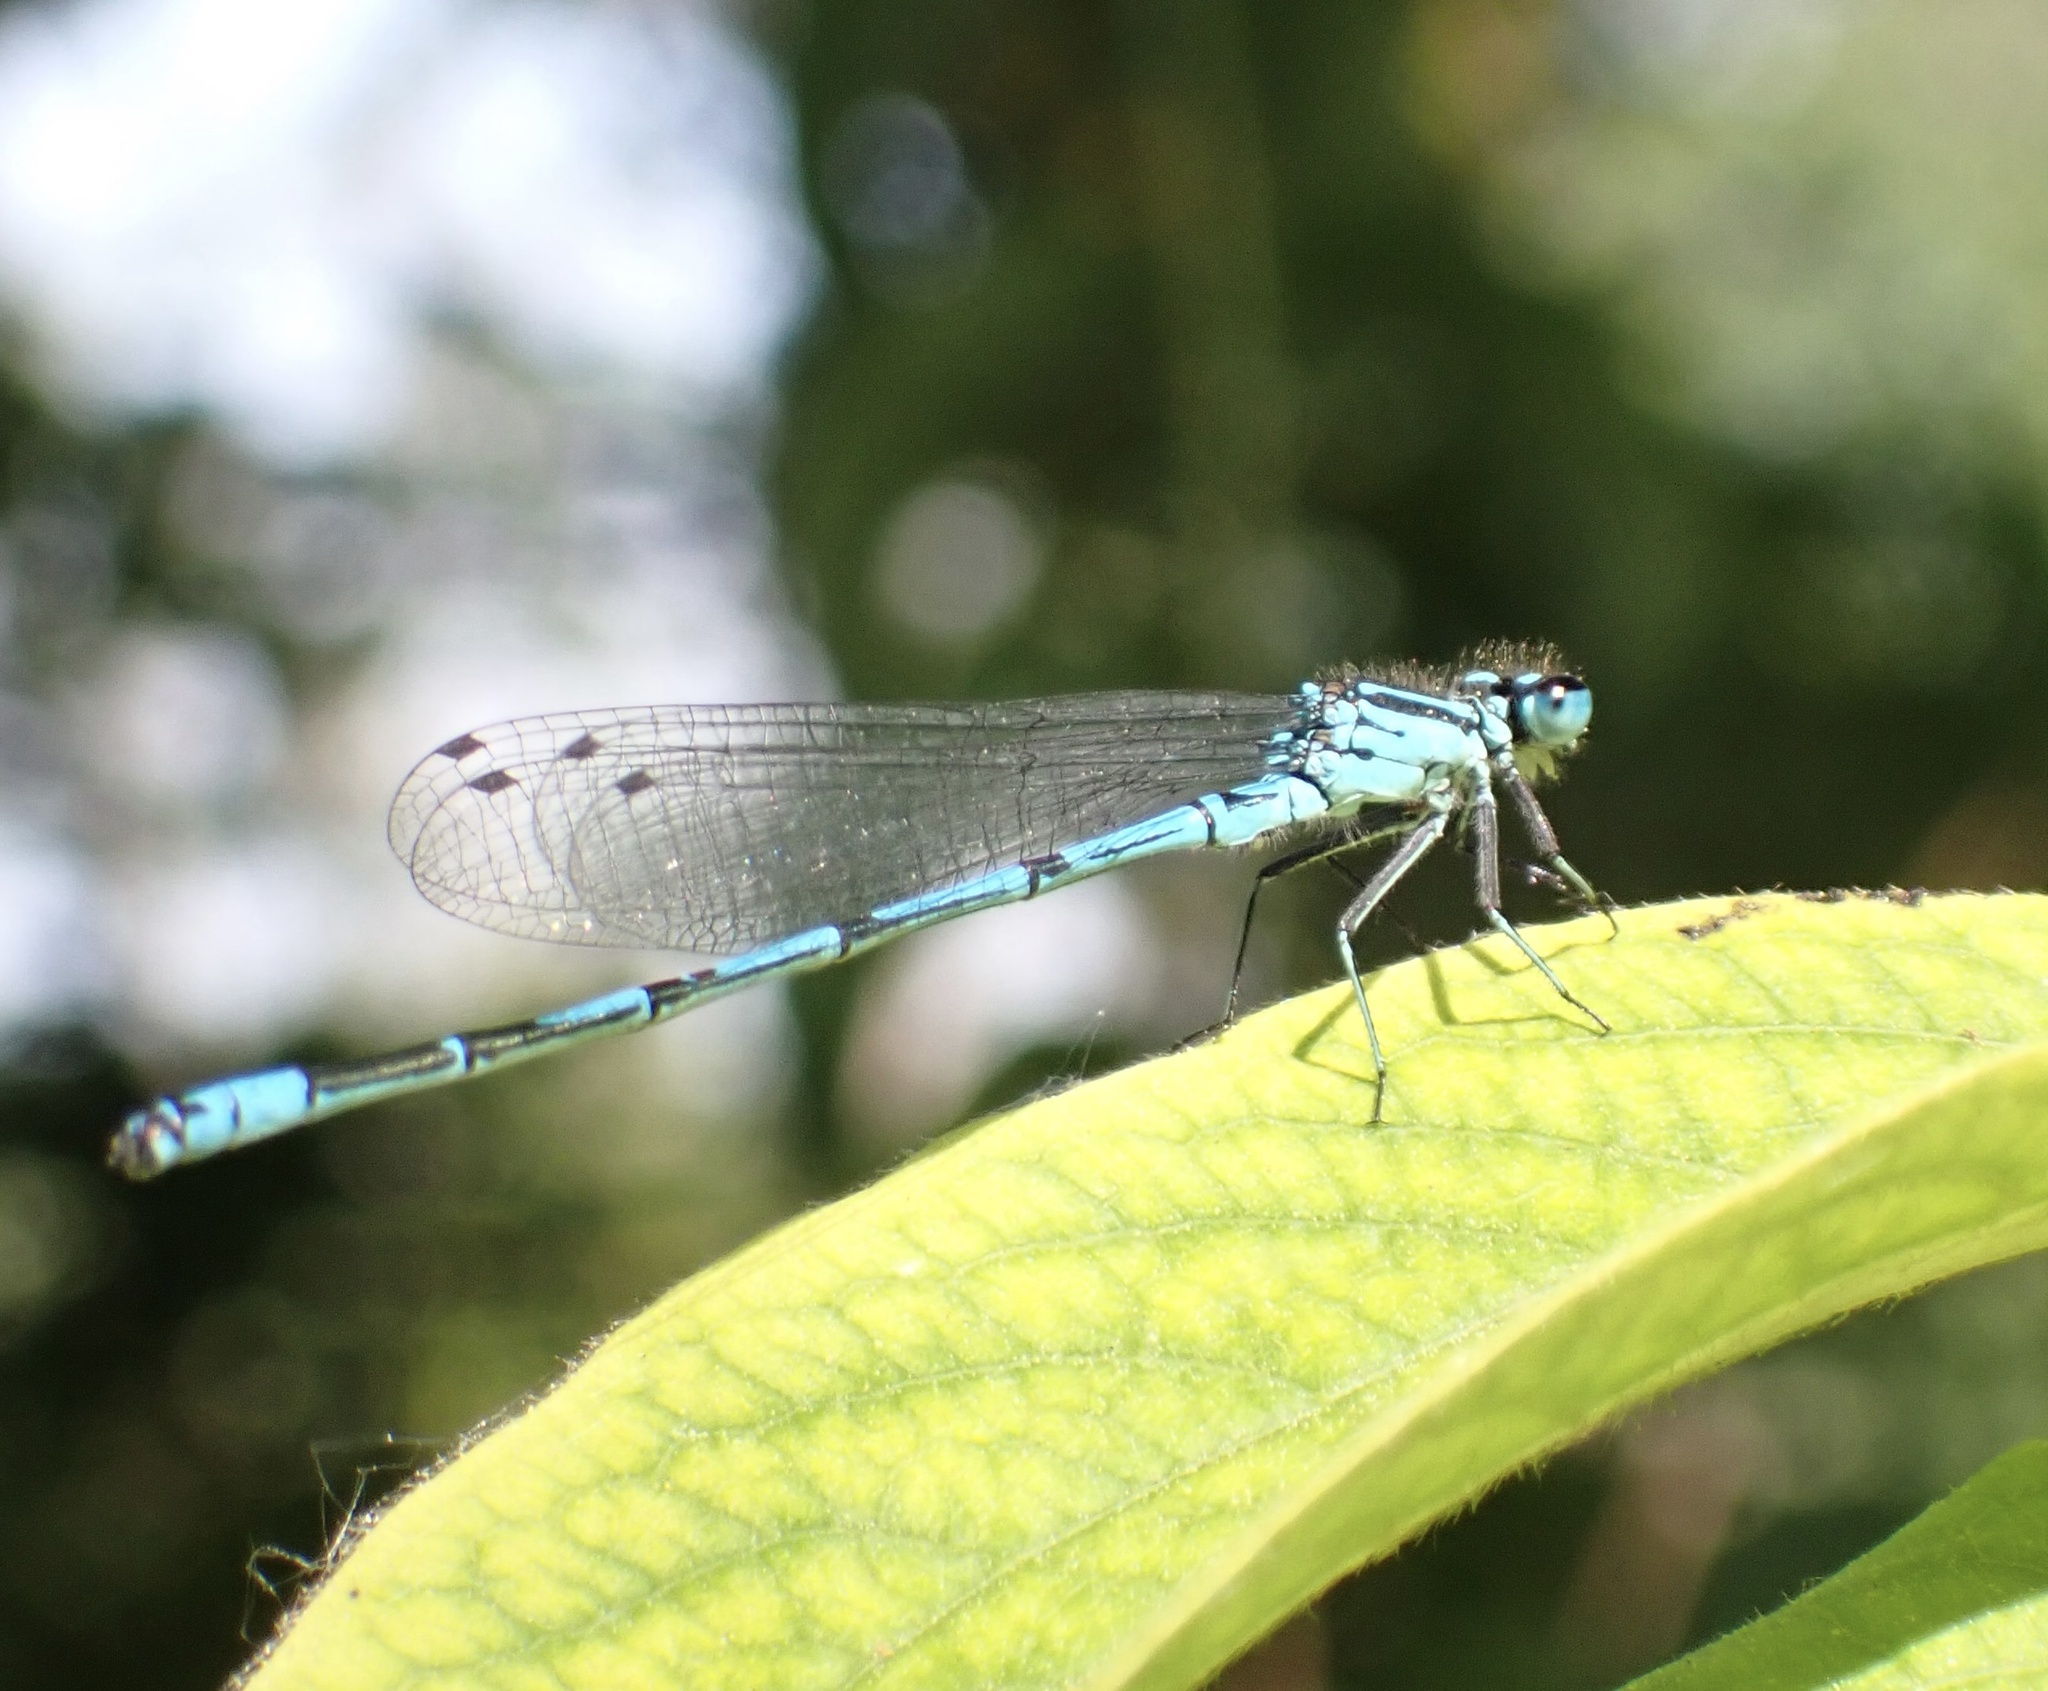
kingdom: Animalia
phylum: Arthropoda
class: Insecta
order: Odonata
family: Coenagrionidae
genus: Coenagrion
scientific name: Coenagrion puella
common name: Azure damselfly
